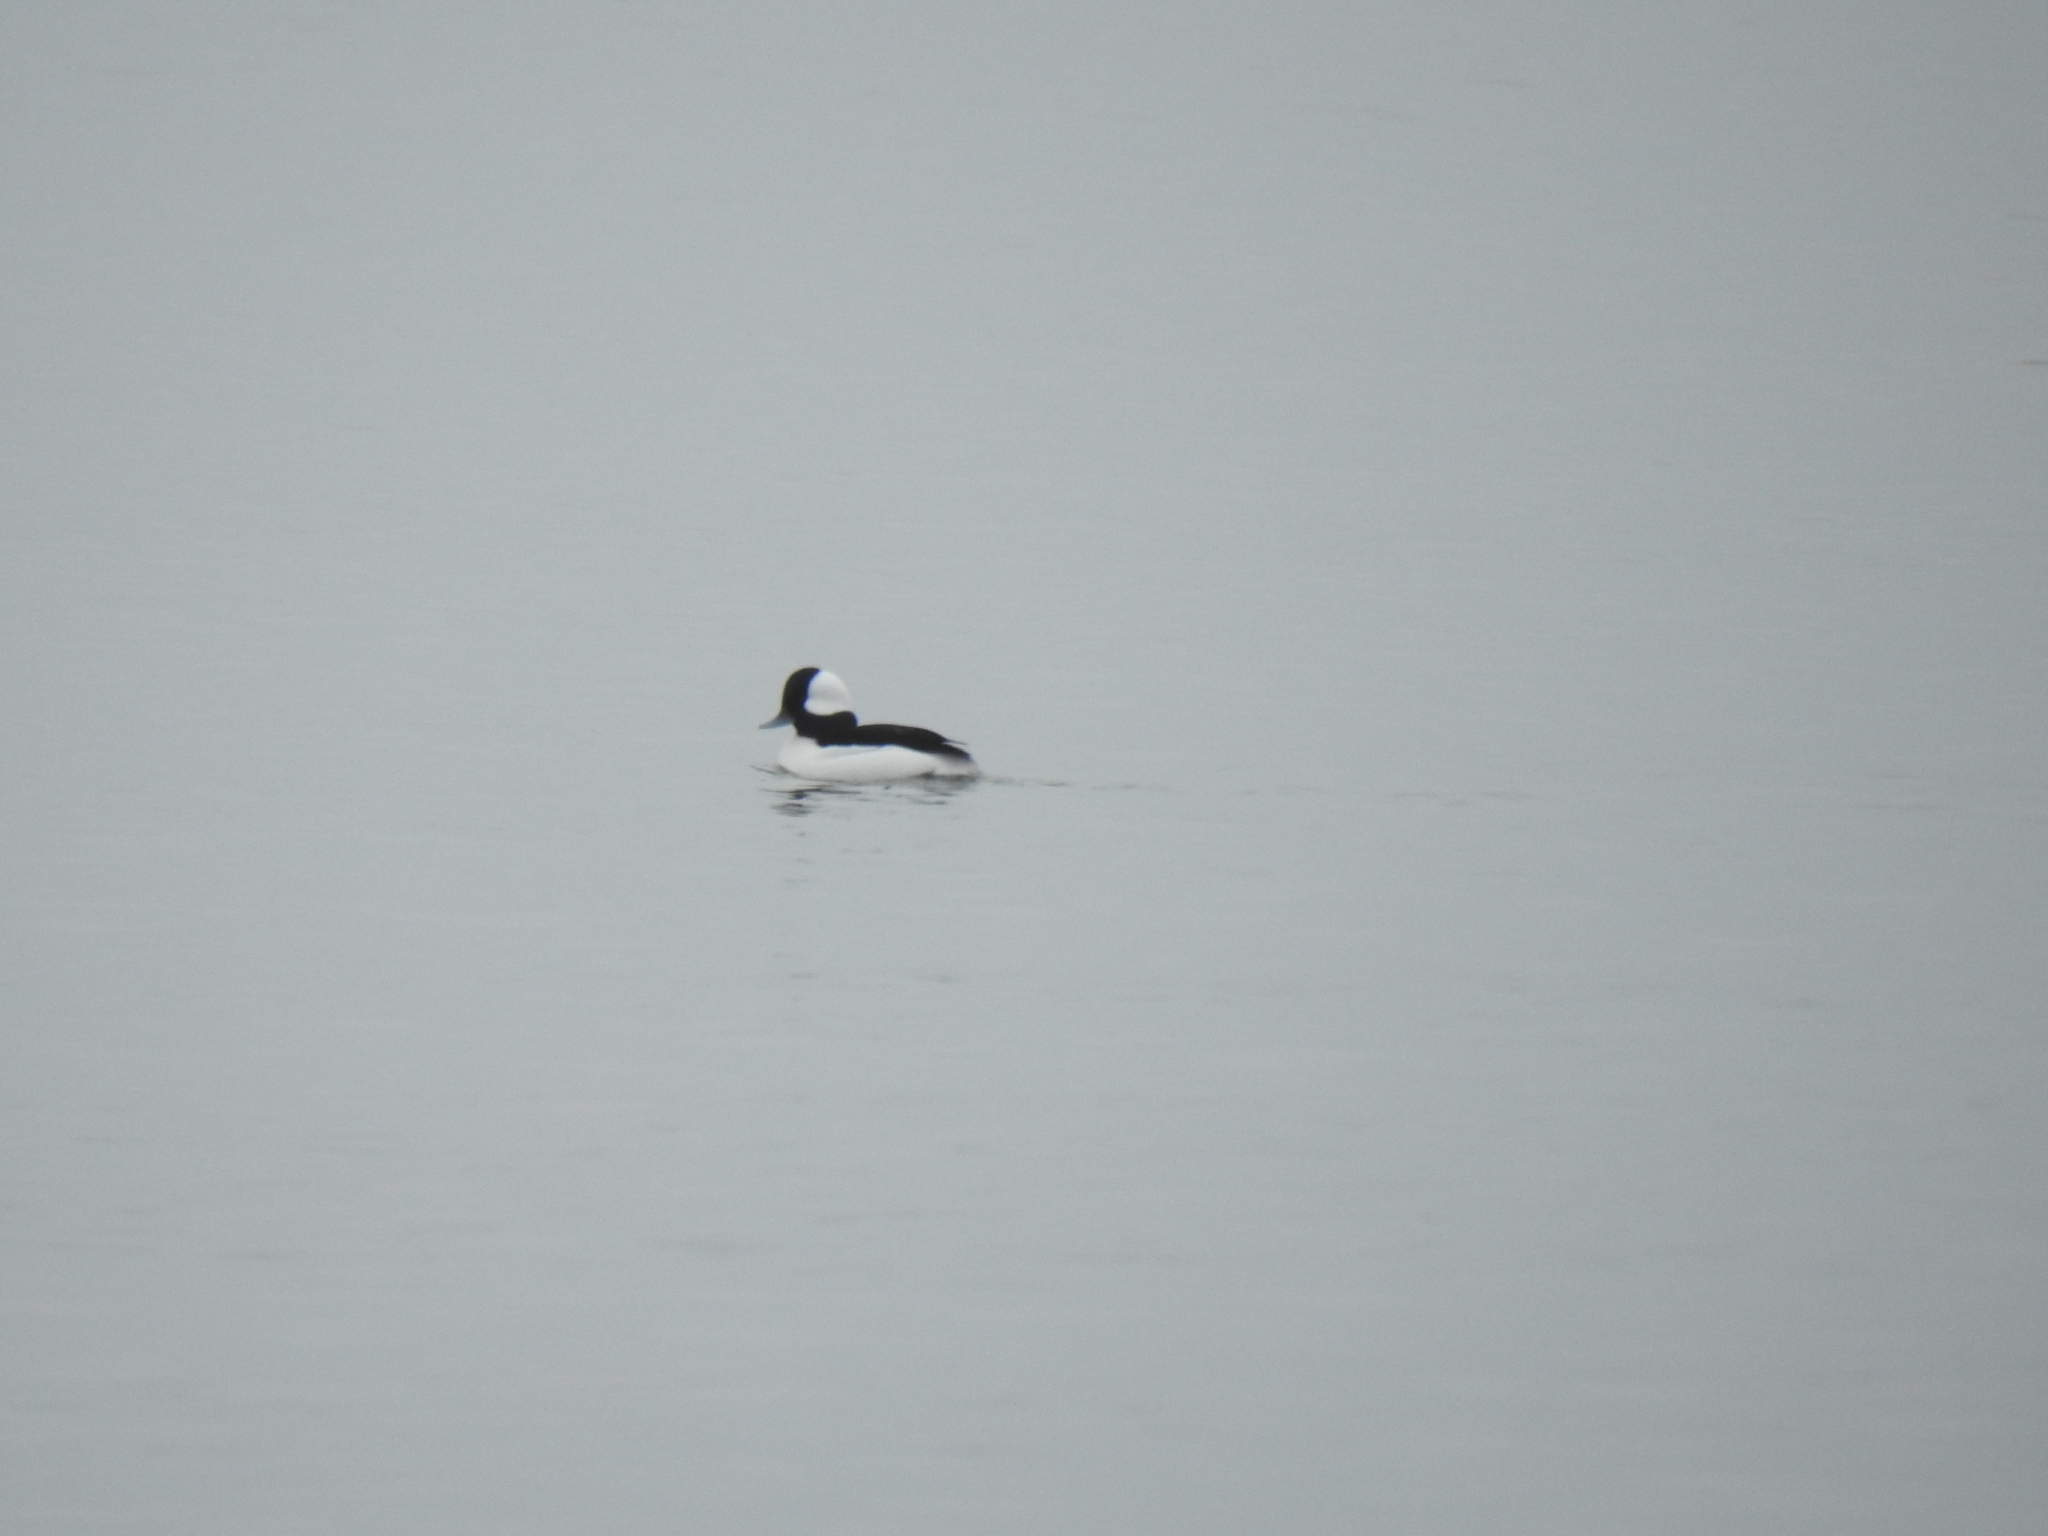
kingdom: Animalia
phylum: Chordata
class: Aves
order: Anseriformes
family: Anatidae
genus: Bucephala
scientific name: Bucephala albeola
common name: Bufflehead
